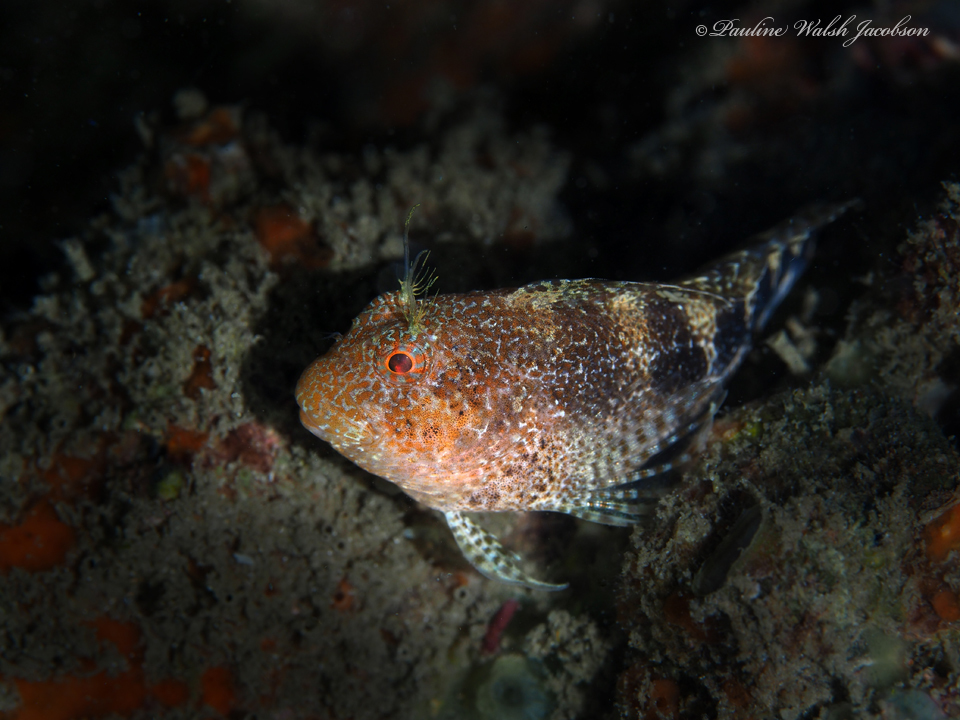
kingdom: Animalia
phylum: Chordata
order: Perciformes
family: Blenniidae
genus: Hypleurochilus
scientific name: Hypleurochilus bermudensis
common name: Barred blenny
